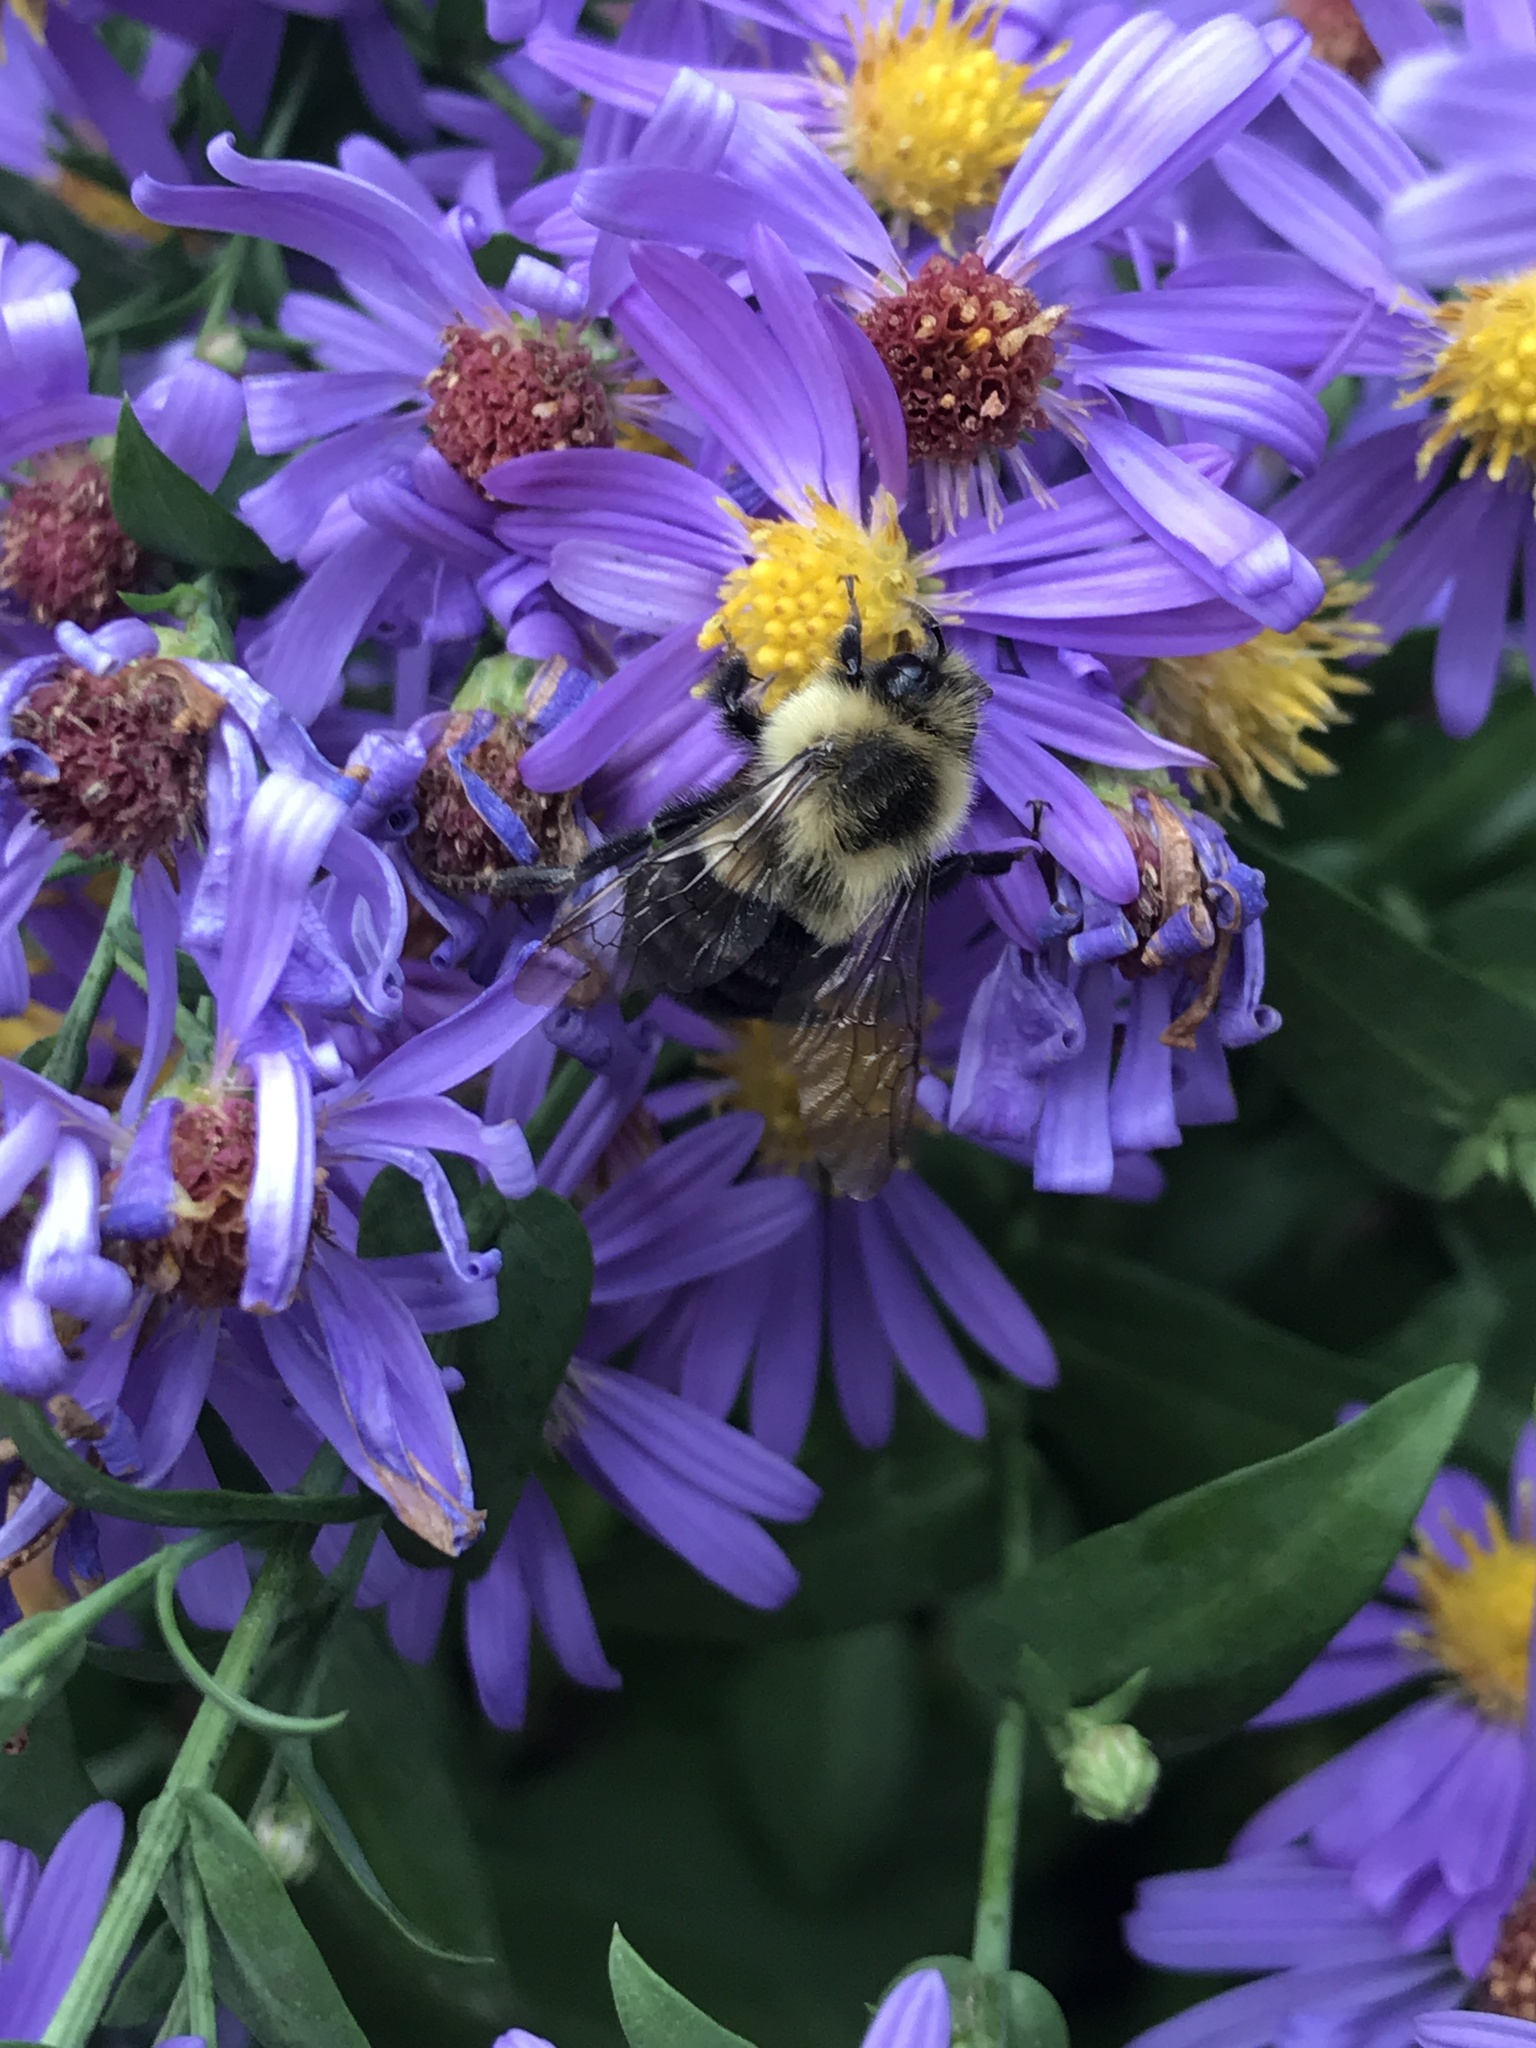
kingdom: Animalia
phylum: Arthropoda
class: Insecta
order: Hymenoptera
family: Apidae
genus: Bombus
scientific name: Bombus impatiens
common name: Common eastern bumble bee
